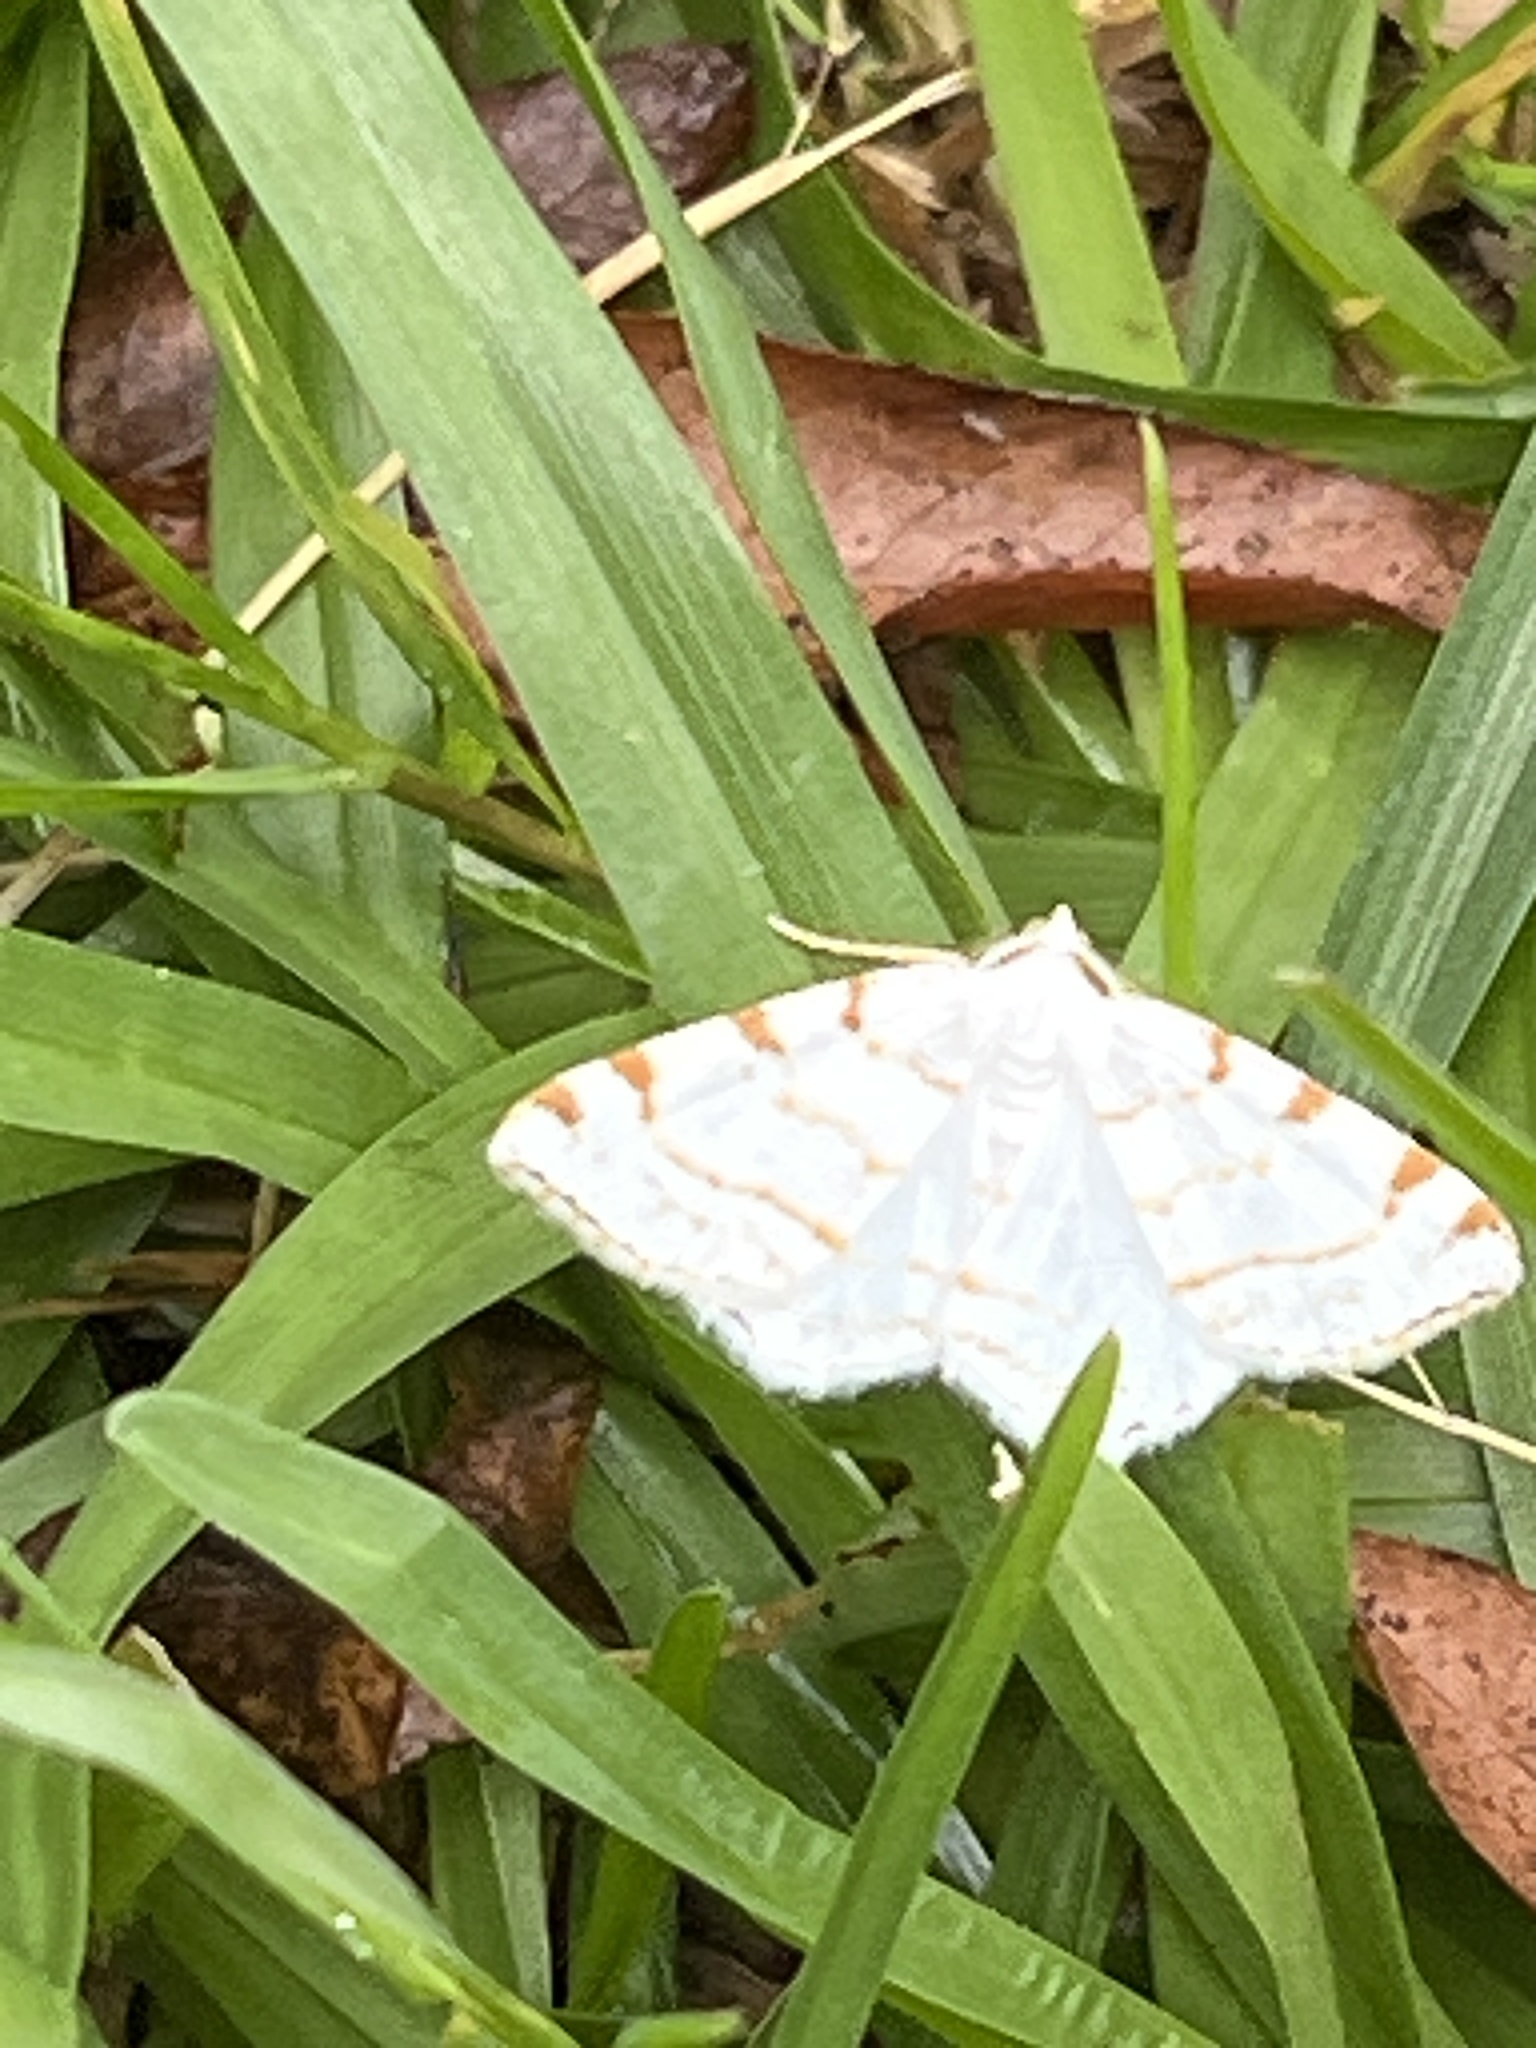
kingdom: Animalia
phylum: Arthropoda
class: Insecta
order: Lepidoptera
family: Geometridae
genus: Macaria
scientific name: Macaria pustularia
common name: Lesser maple spanworm moth
